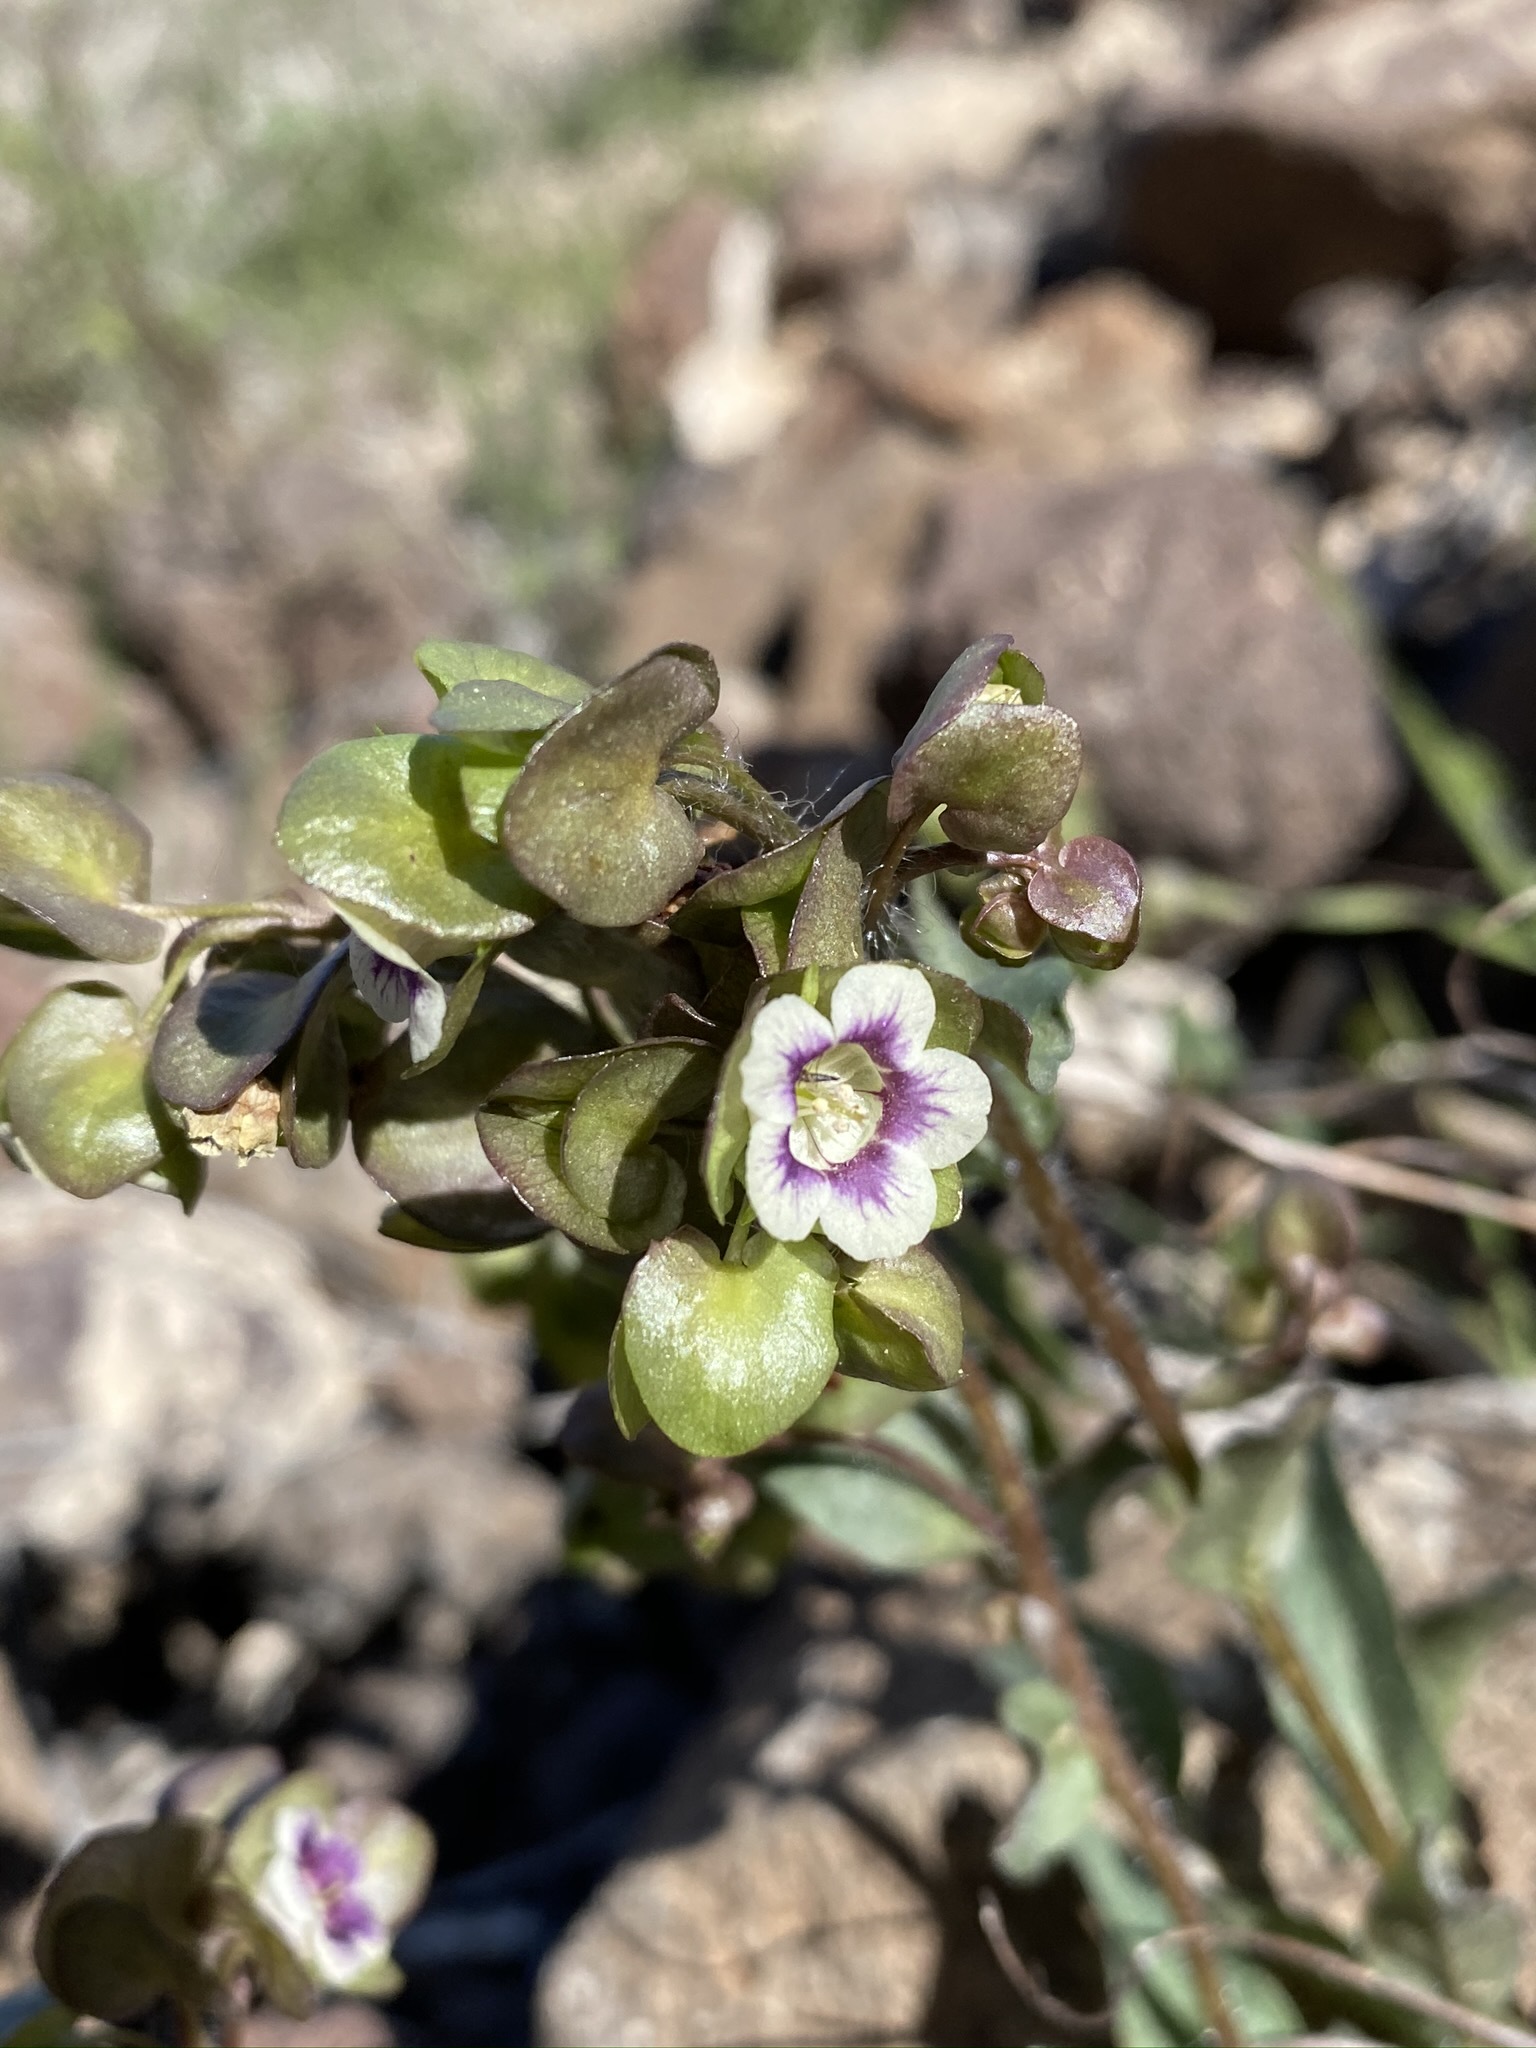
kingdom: Plantae
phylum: Tracheophyta
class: Magnoliopsida
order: Boraginales
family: Hydrophyllaceae
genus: Tricardia
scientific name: Tricardia watsonii
